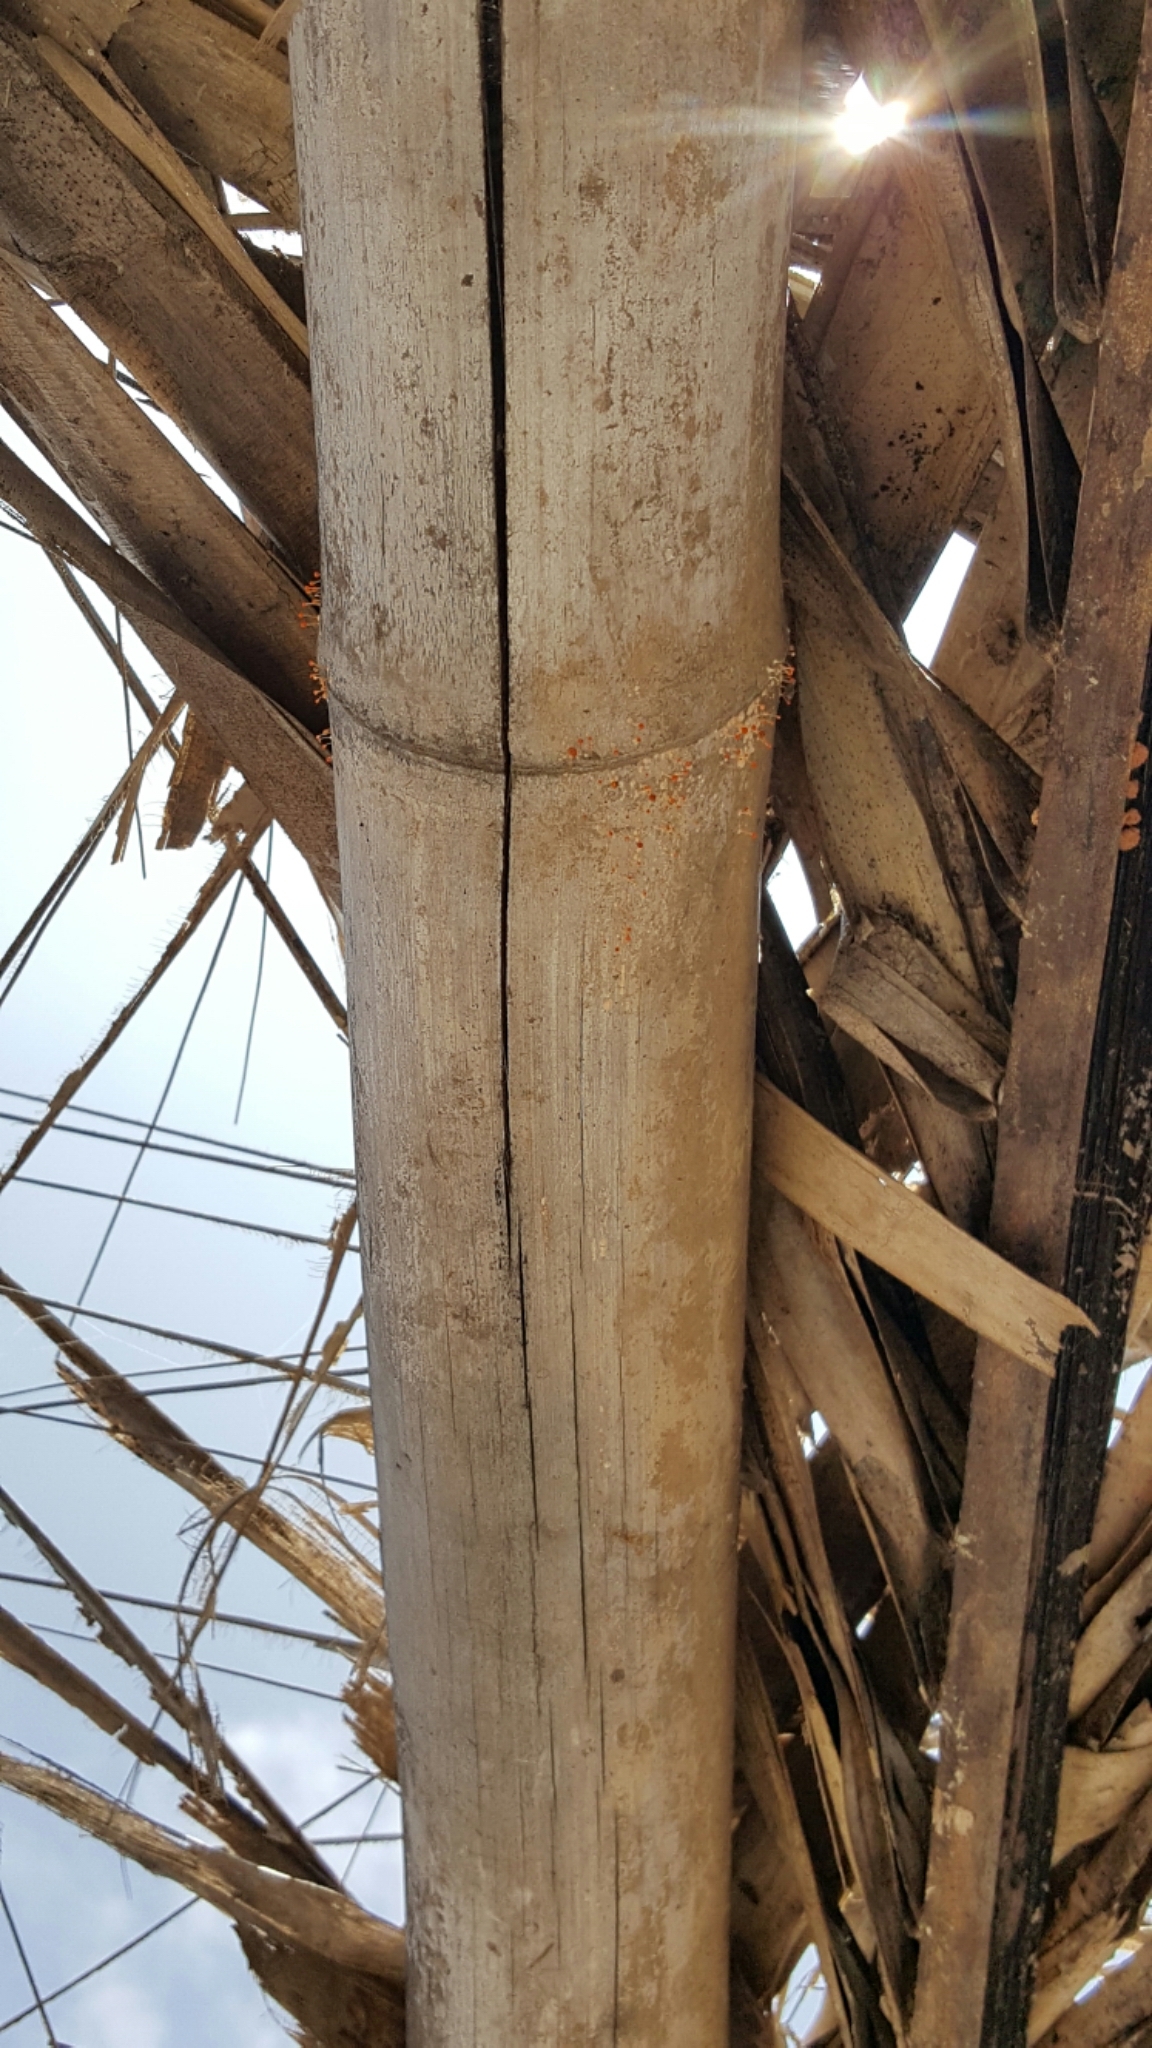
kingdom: Fungi
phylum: Ascomycota
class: Sordariomycetes
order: Hypocreales
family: Nectriaceae
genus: Nectria
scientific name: Nectria pseudotrichia
